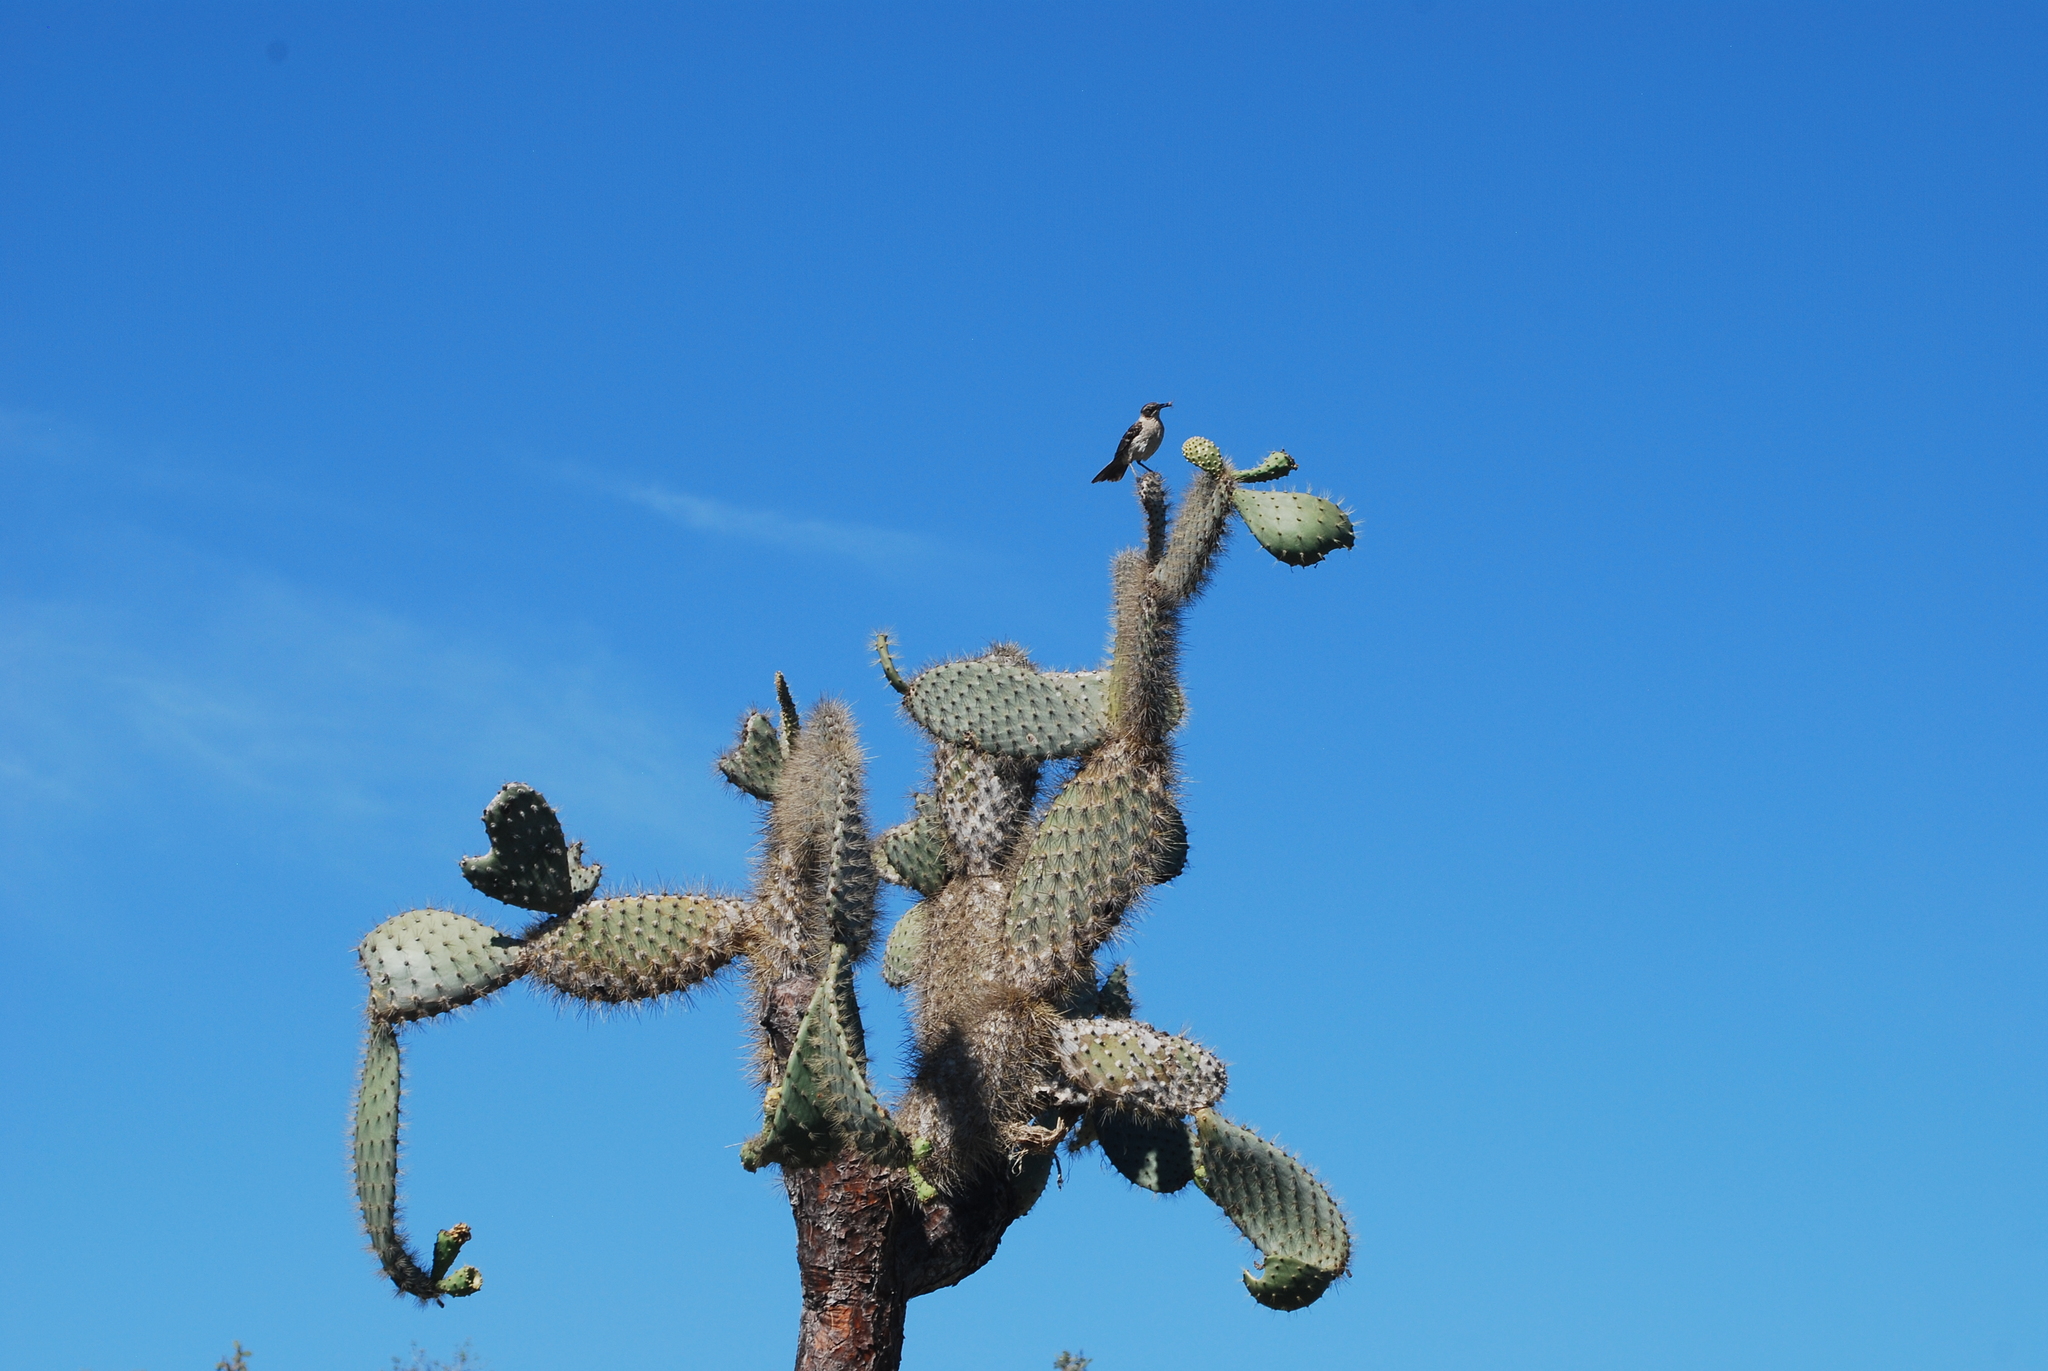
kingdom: Animalia
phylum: Chordata
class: Aves
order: Passeriformes
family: Mimidae
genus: Mimus
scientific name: Mimus parvulus
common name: Galapagos mockingbird
